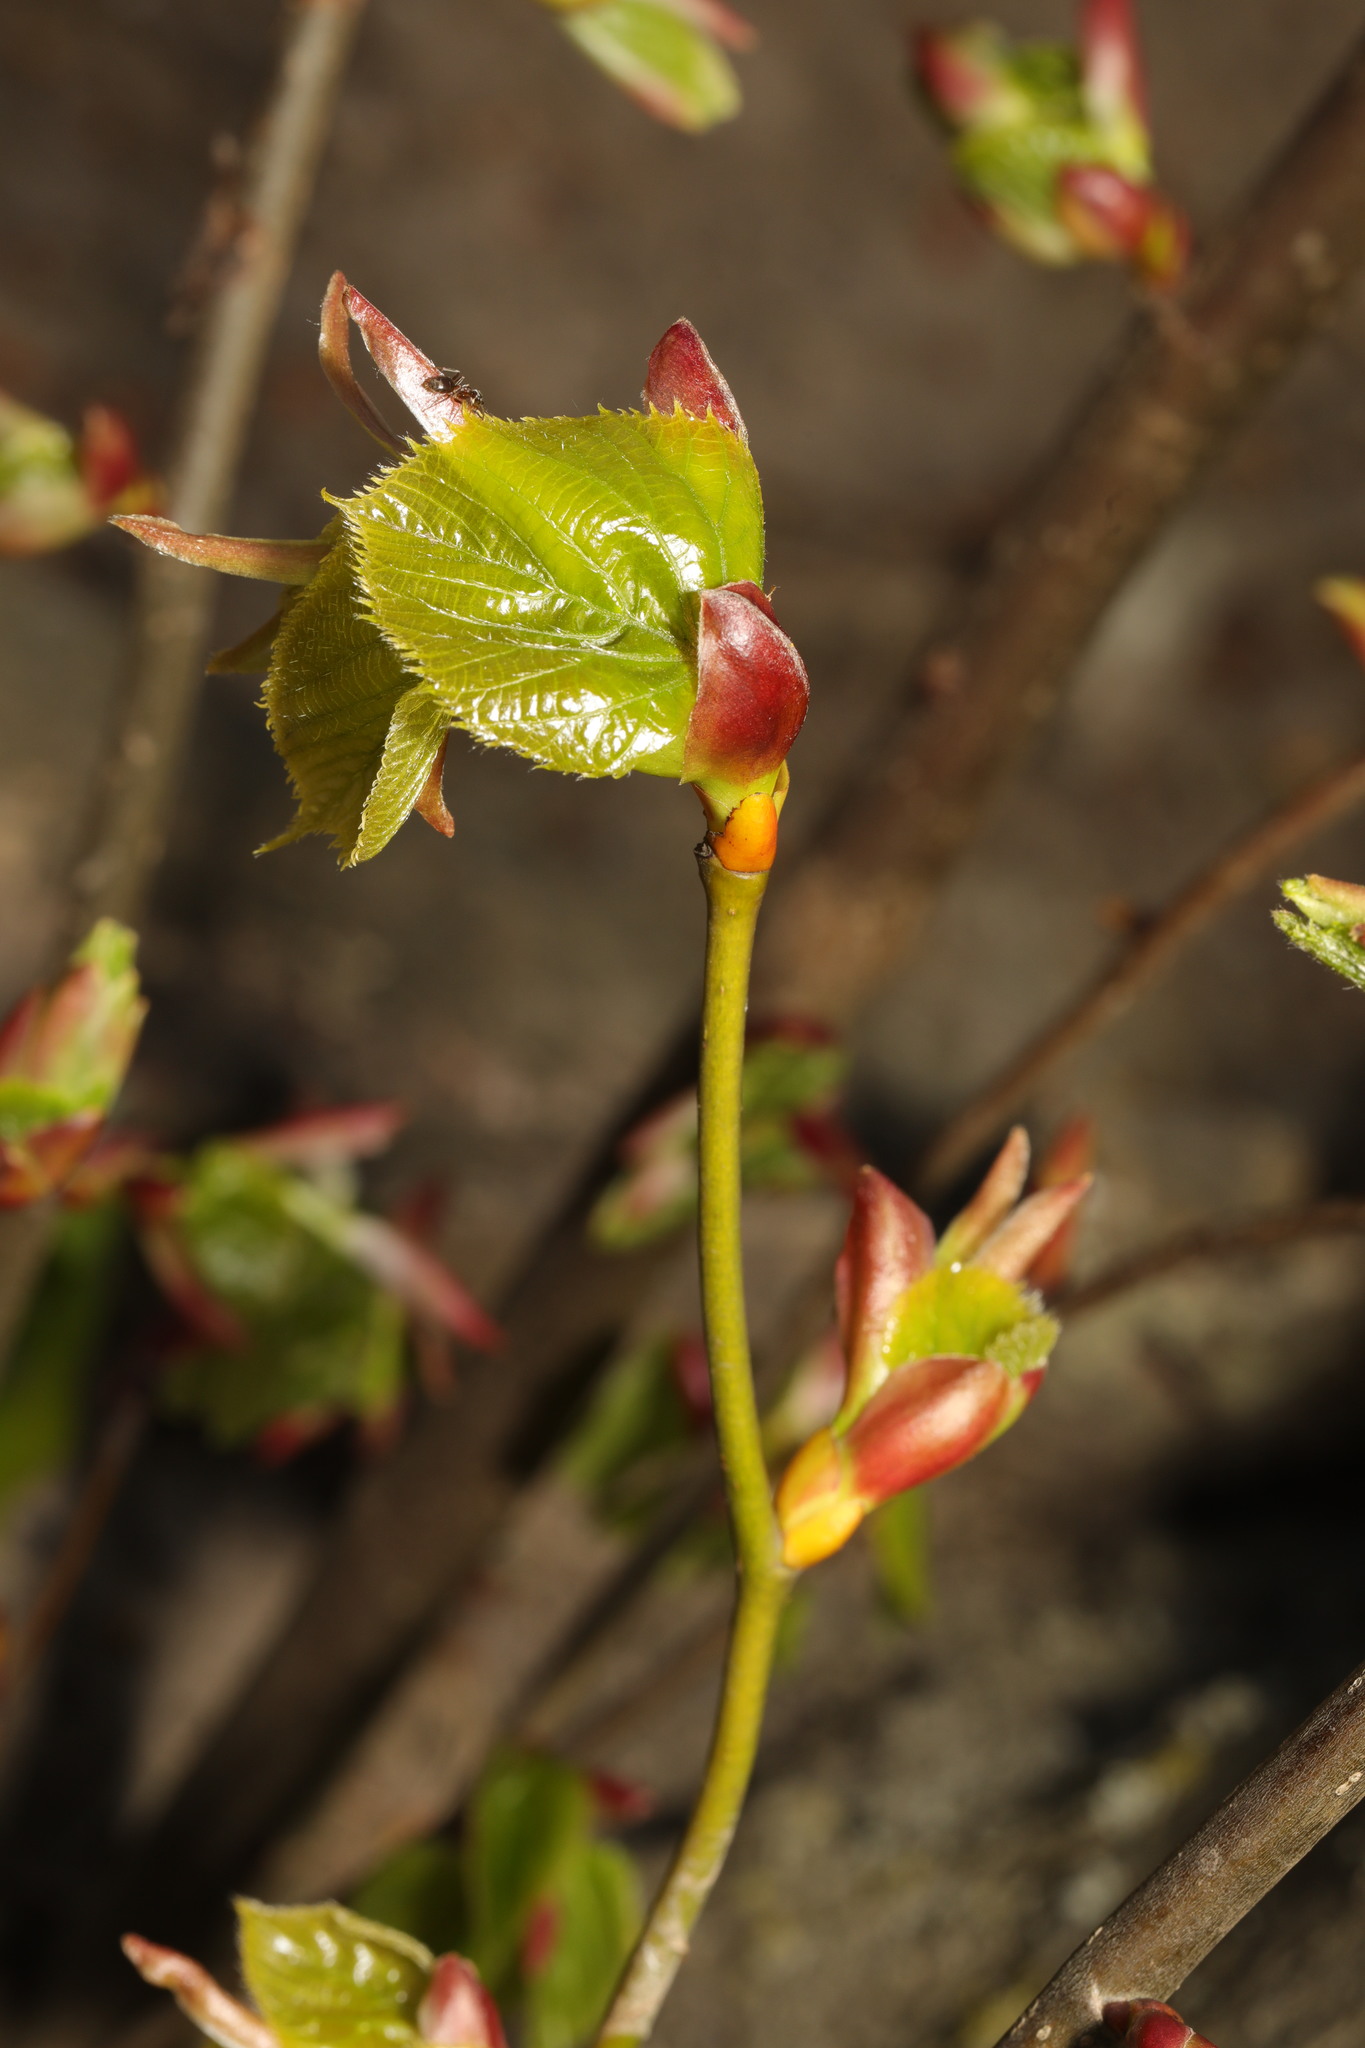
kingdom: Plantae
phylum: Tracheophyta
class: Magnoliopsida
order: Malvales
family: Malvaceae
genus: Tilia
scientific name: Tilia europaea
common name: European linden
